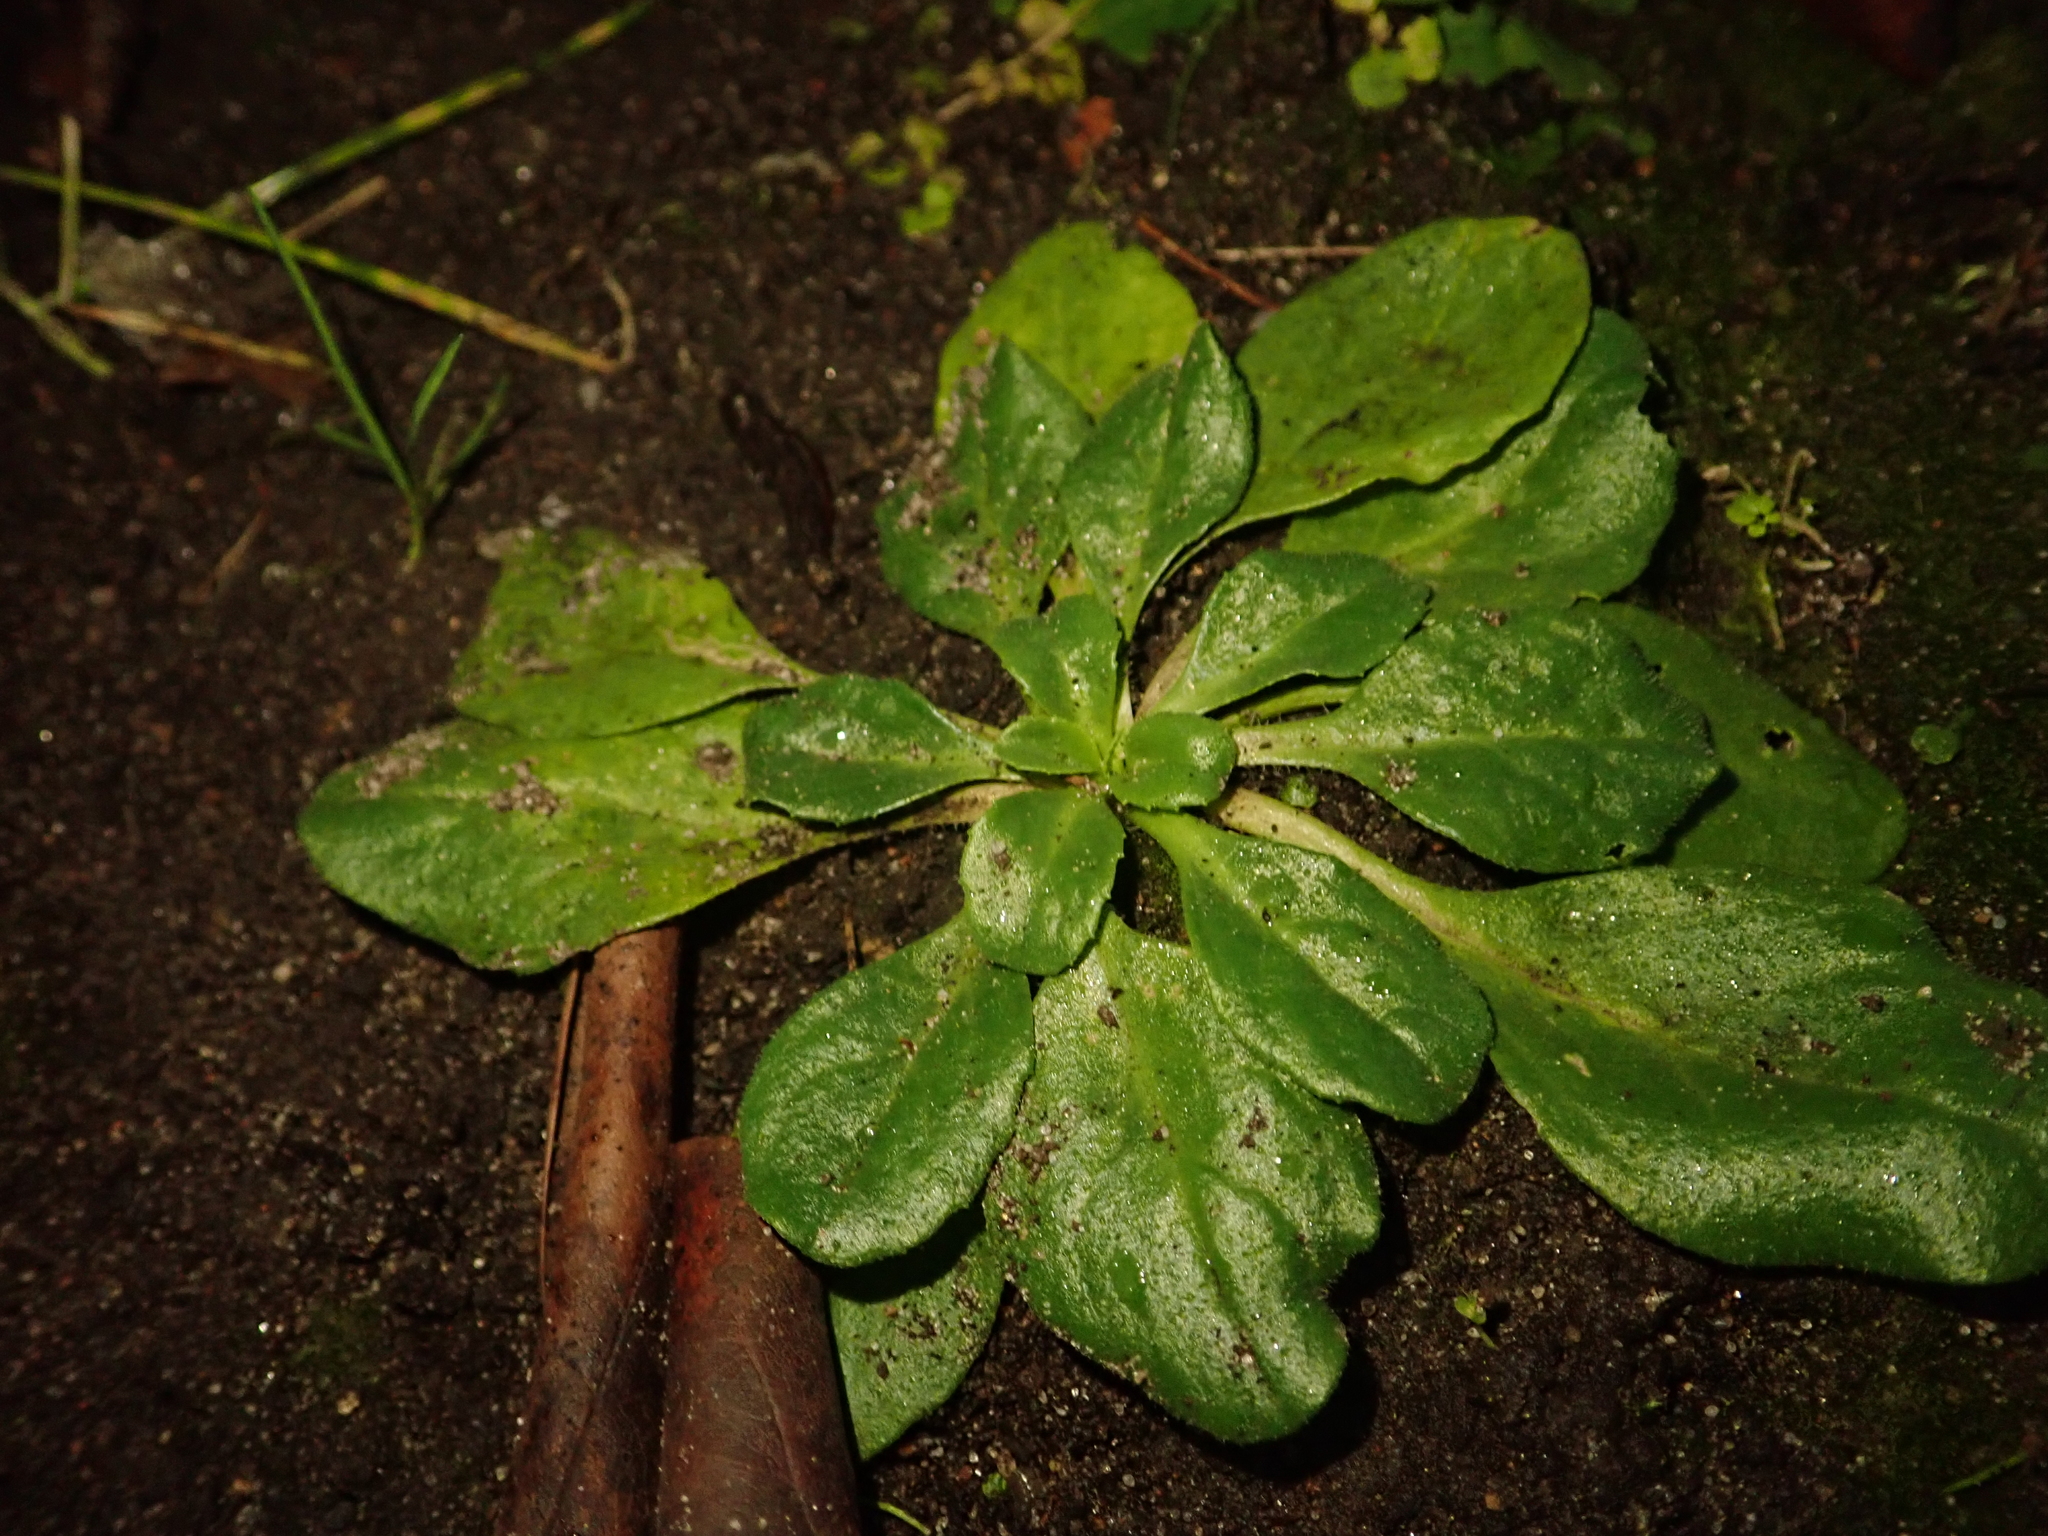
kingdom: Plantae
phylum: Tracheophyta
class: Magnoliopsida
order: Asterales
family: Asteraceae
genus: Bellis
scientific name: Bellis perennis
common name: Lawndaisy
